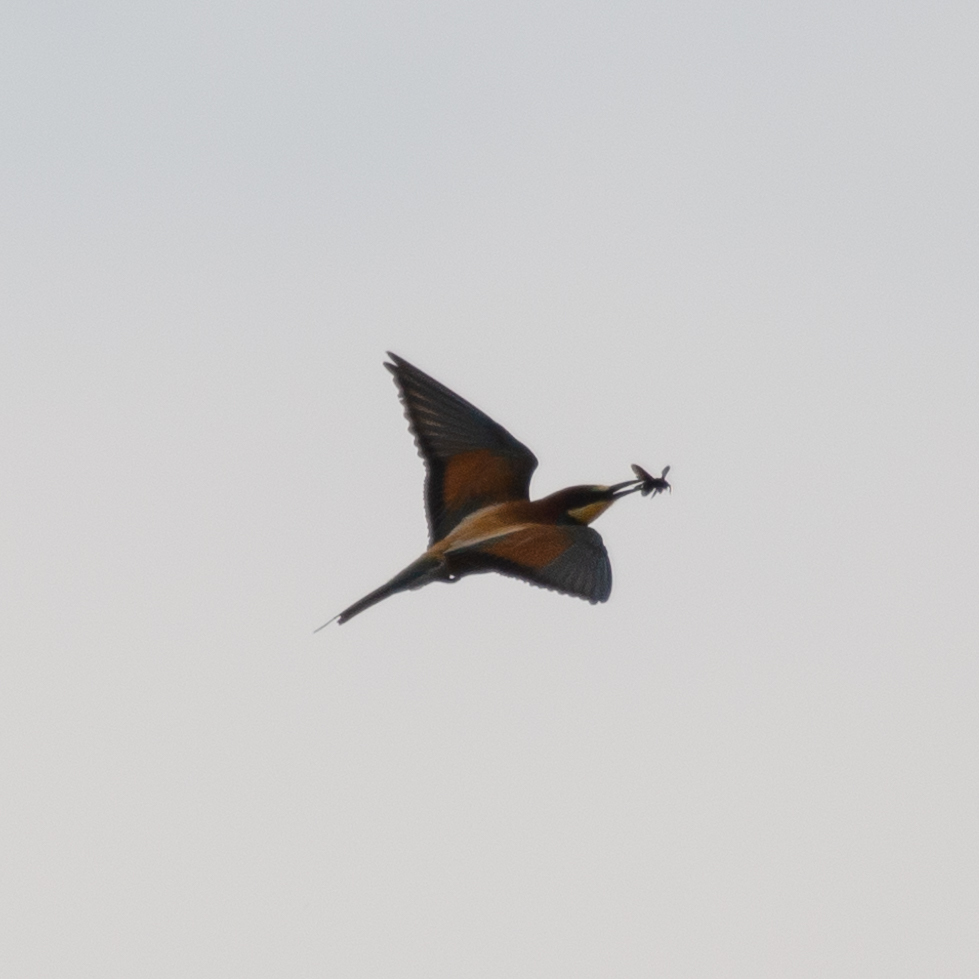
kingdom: Animalia
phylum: Chordata
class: Aves
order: Coraciiformes
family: Meropidae
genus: Merops
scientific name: Merops apiaster
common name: European bee-eater
